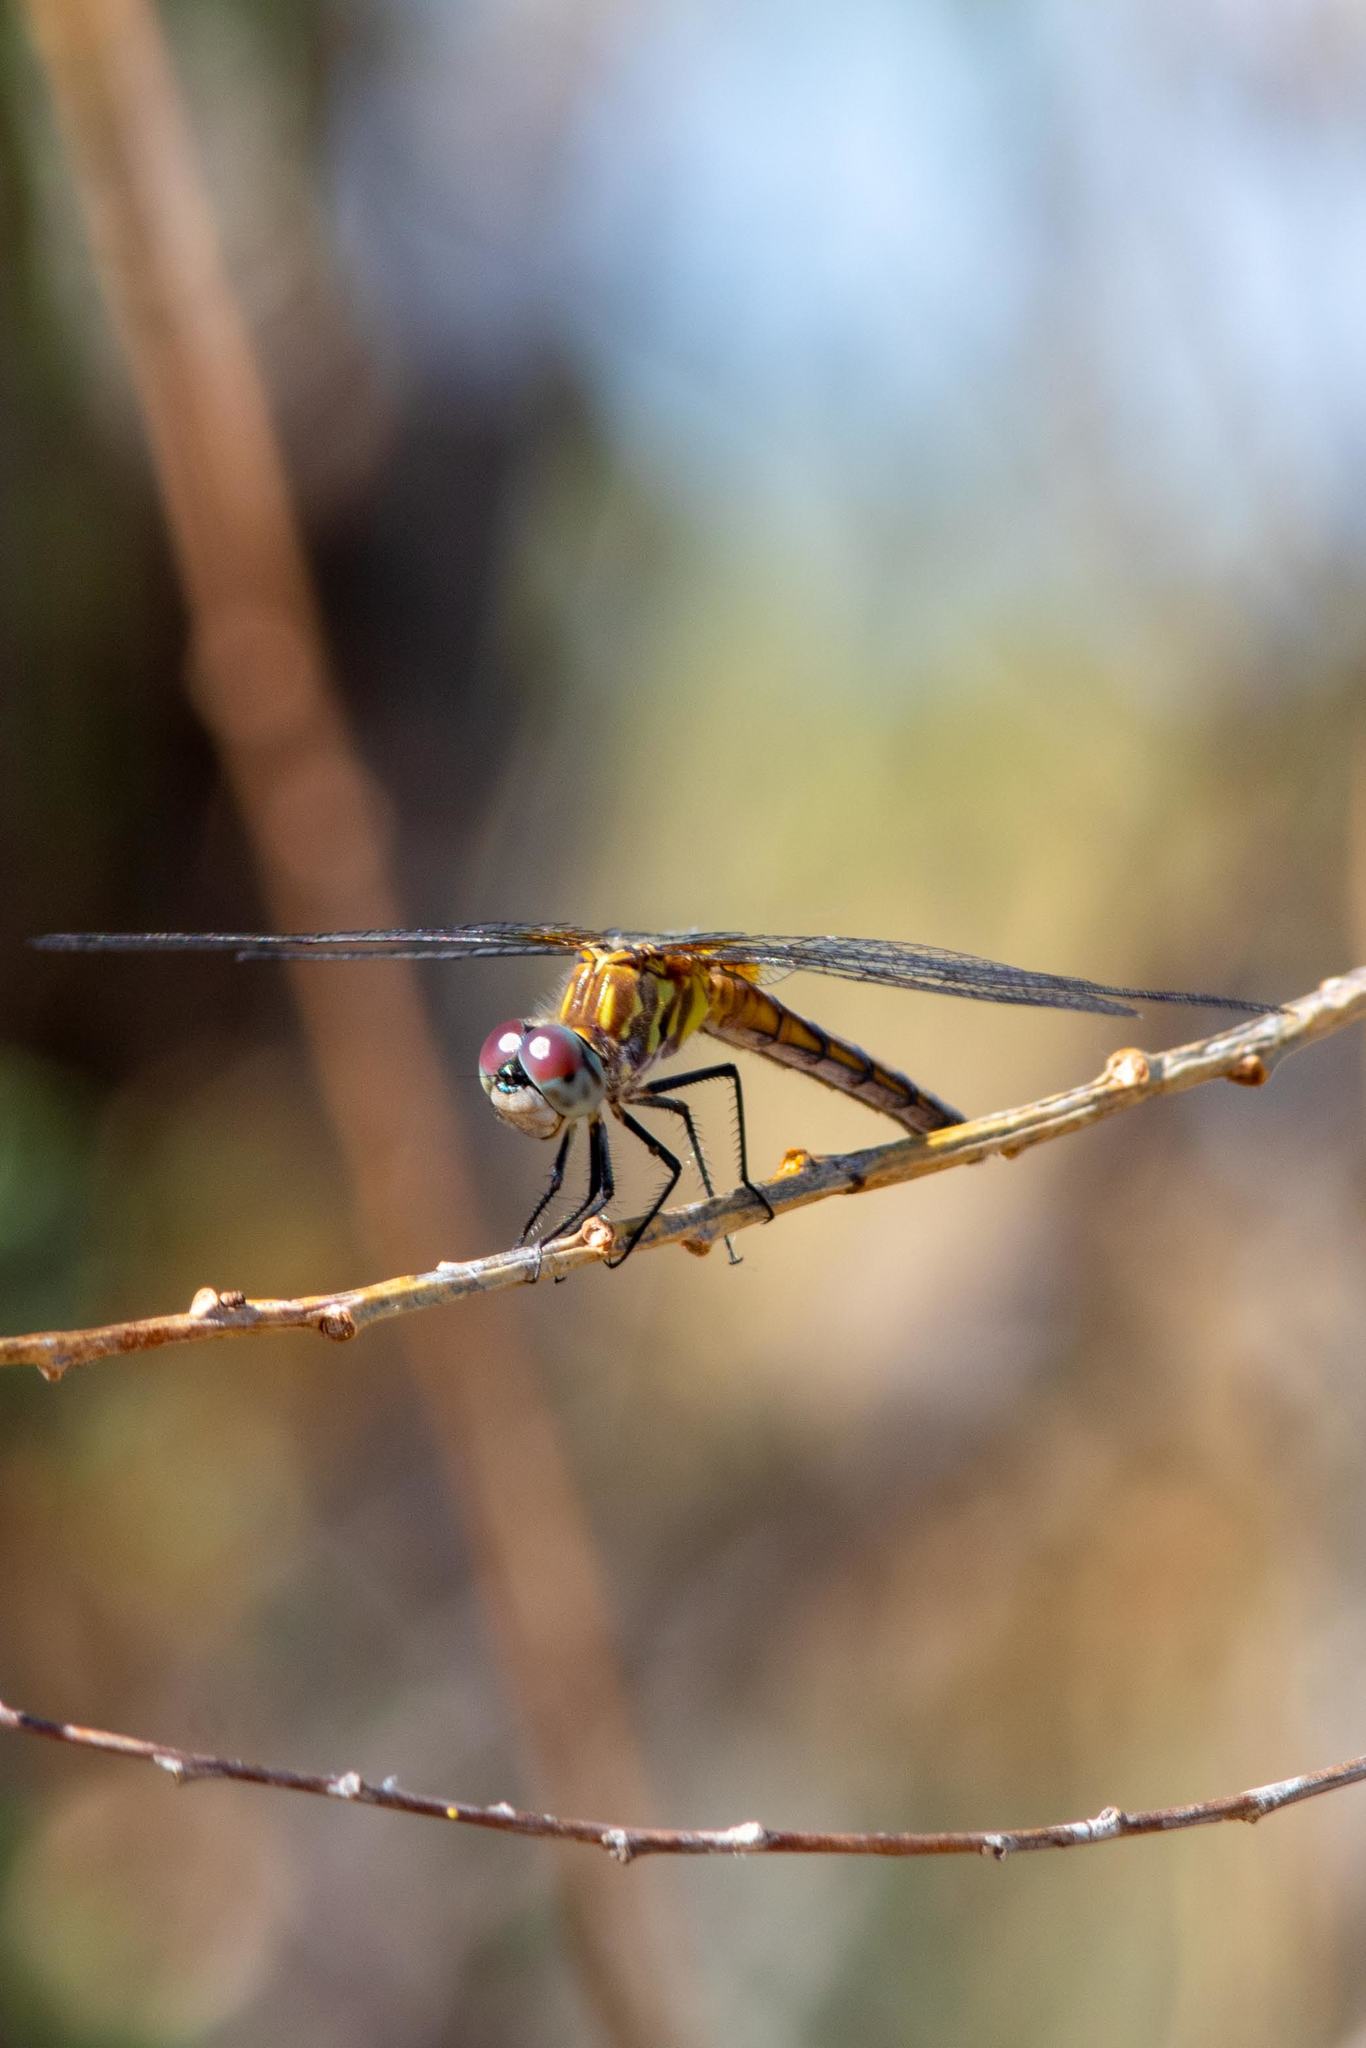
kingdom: Animalia
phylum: Arthropoda
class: Insecta
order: Odonata
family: Libellulidae
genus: Pachydiplax
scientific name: Pachydiplax longipennis
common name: Blue dasher
